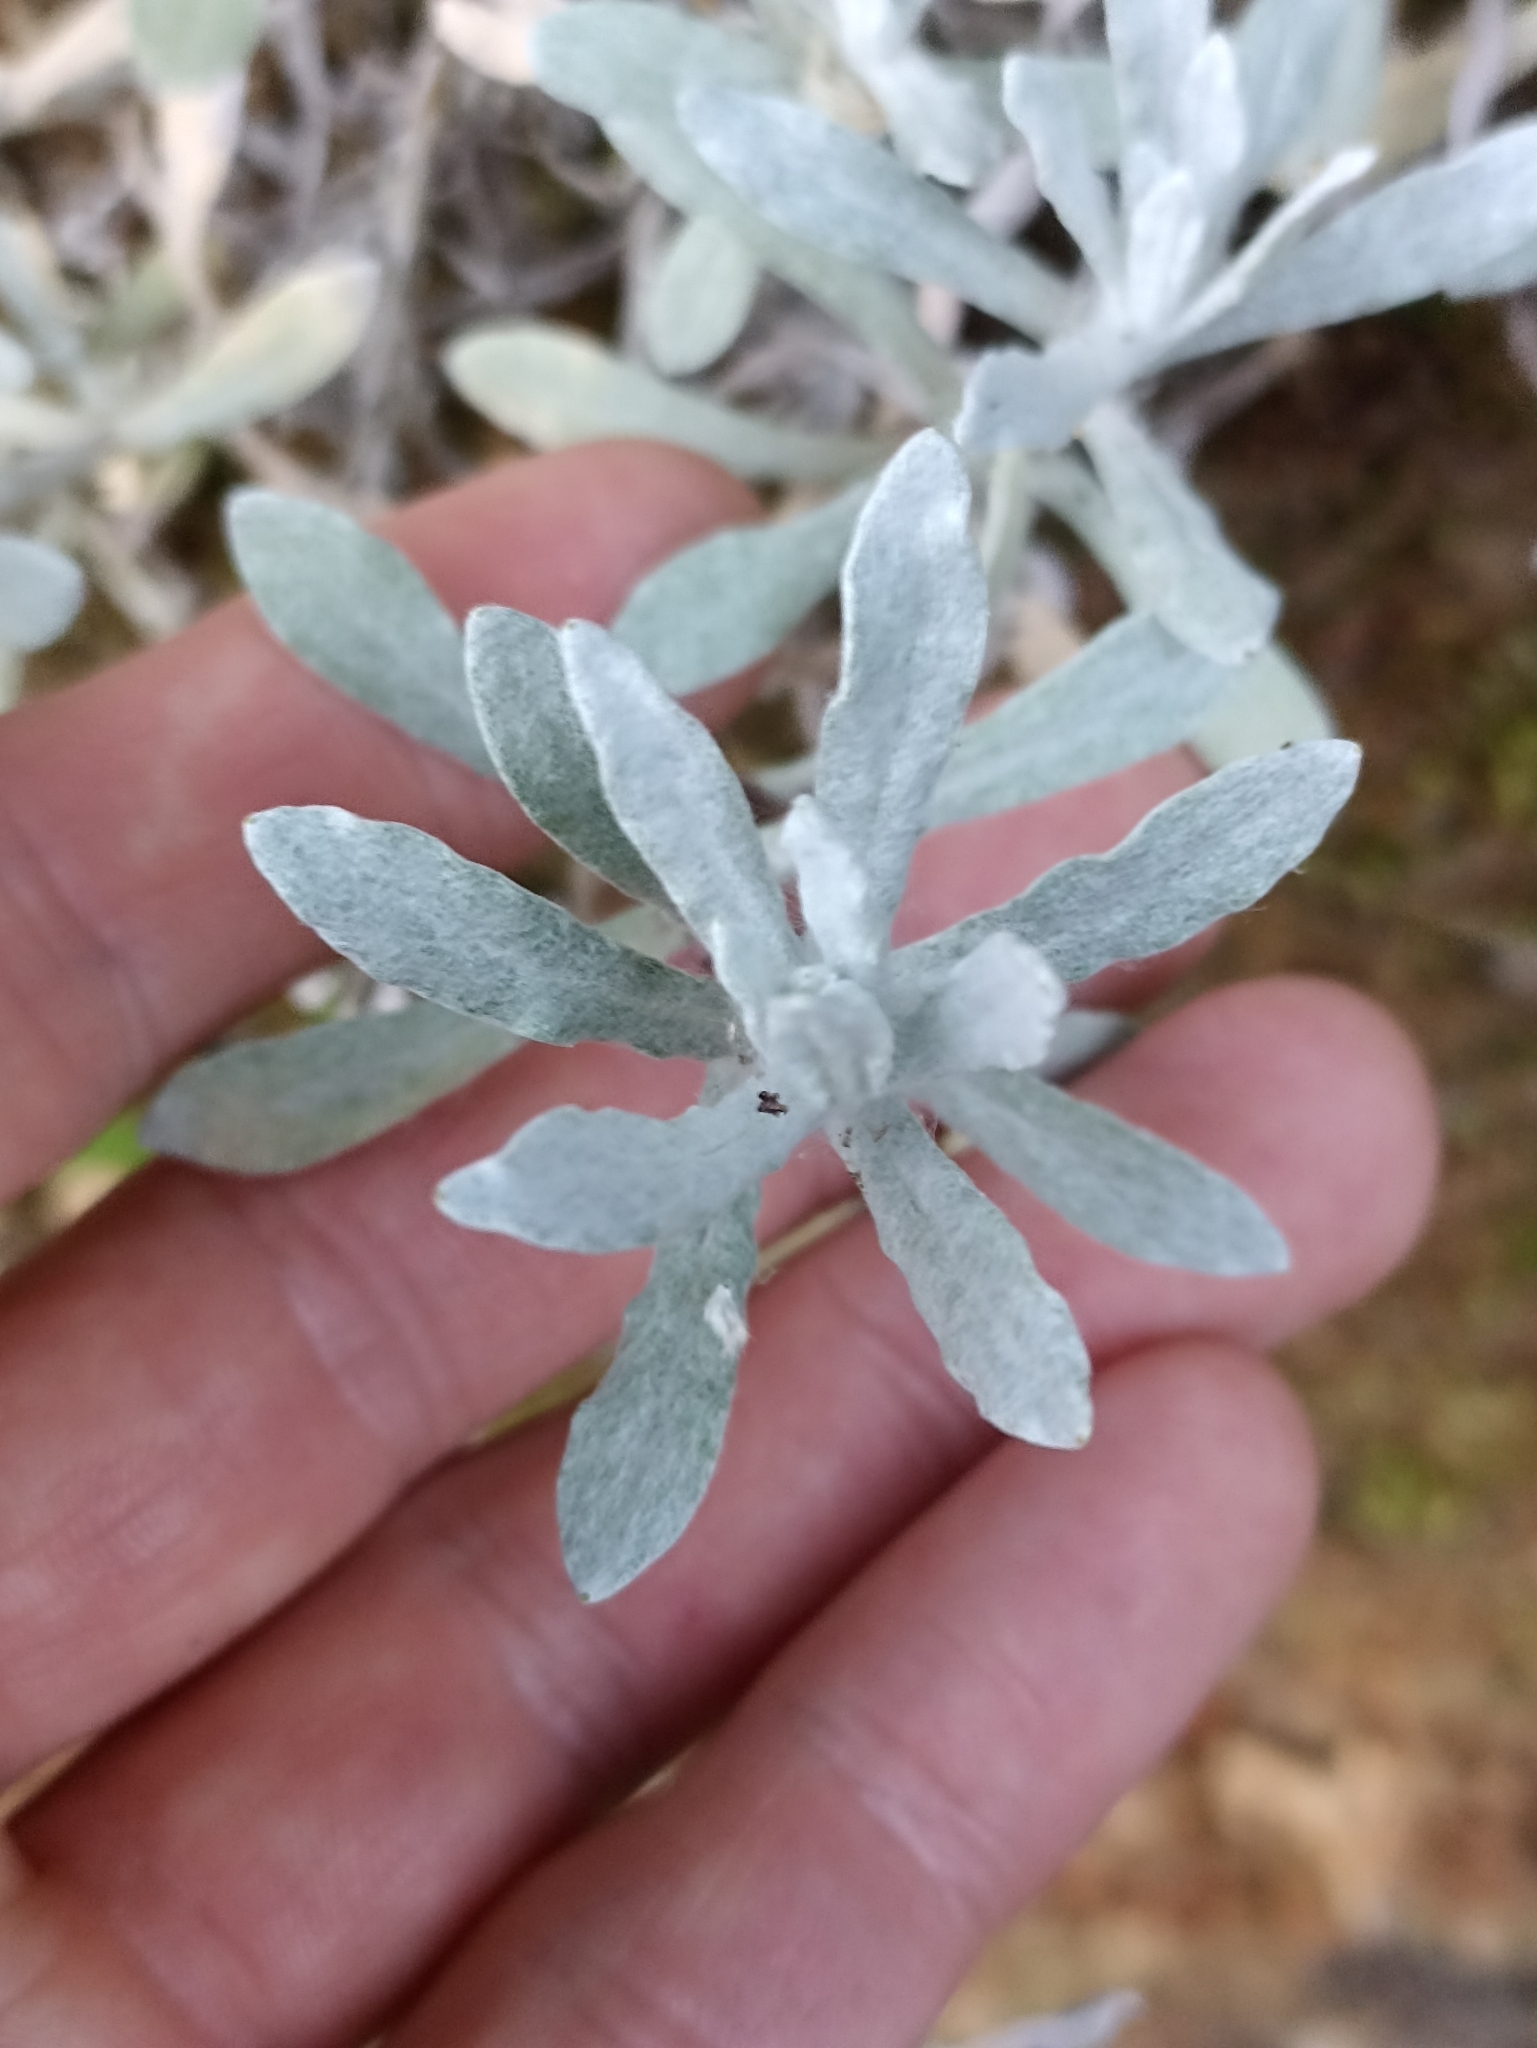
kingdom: Plantae
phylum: Tracheophyta
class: Magnoliopsida
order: Asterales
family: Asteraceae
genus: Helichrysum
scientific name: Helichrysum luteoalbum
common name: Daisy
